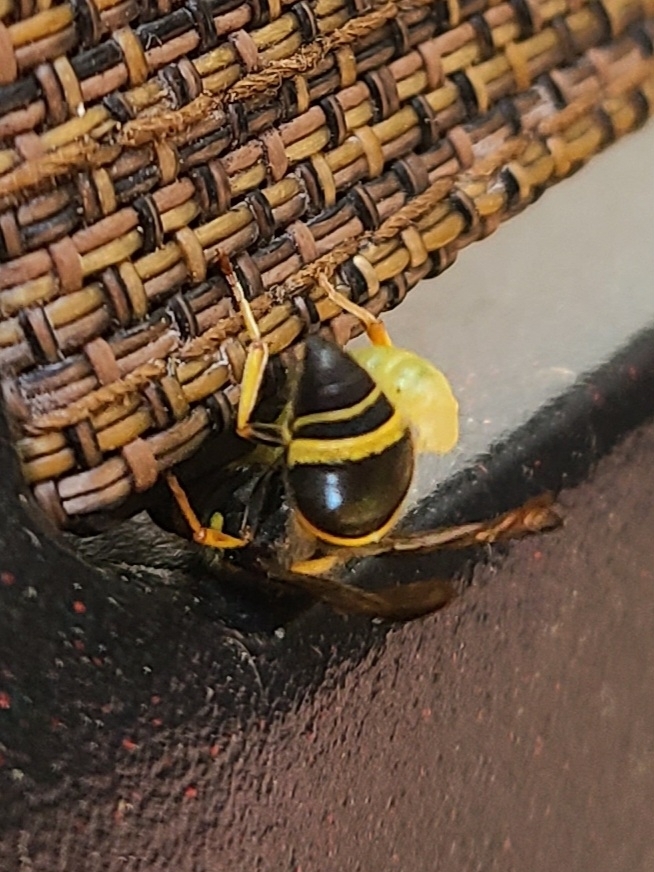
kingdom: Animalia
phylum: Arthropoda
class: Insecta
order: Hymenoptera
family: Vespidae
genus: Ancistrocerus
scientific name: Ancistrocerus campestris
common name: Smiling mason wasp
